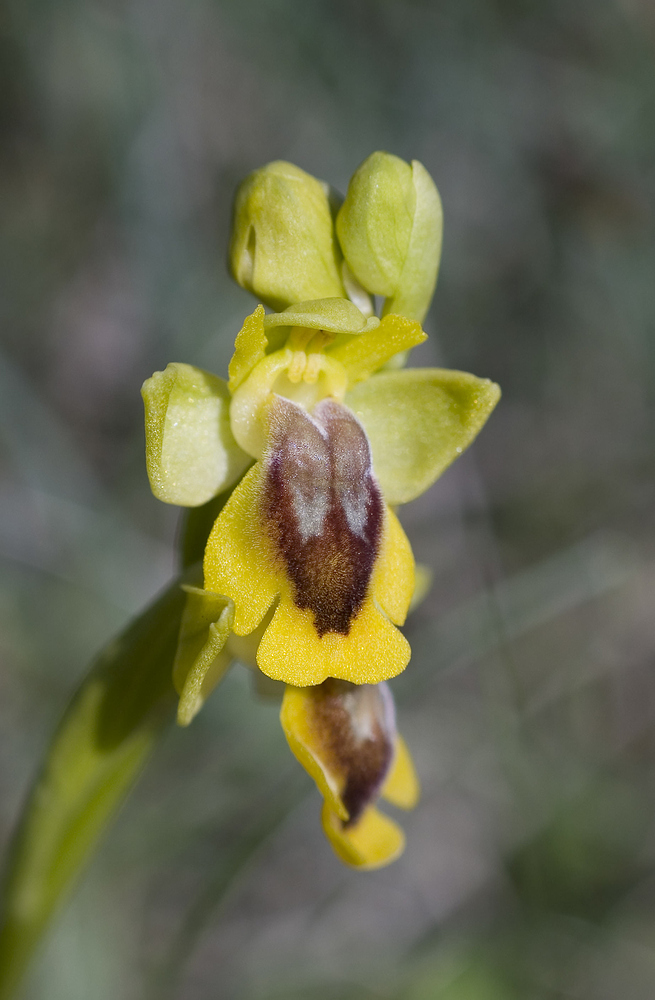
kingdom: Plantae
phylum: Tracheophyta
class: Liliopsida
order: Asparagales
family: Orchidaceae
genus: Ophrys
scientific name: Ophrys lutea
